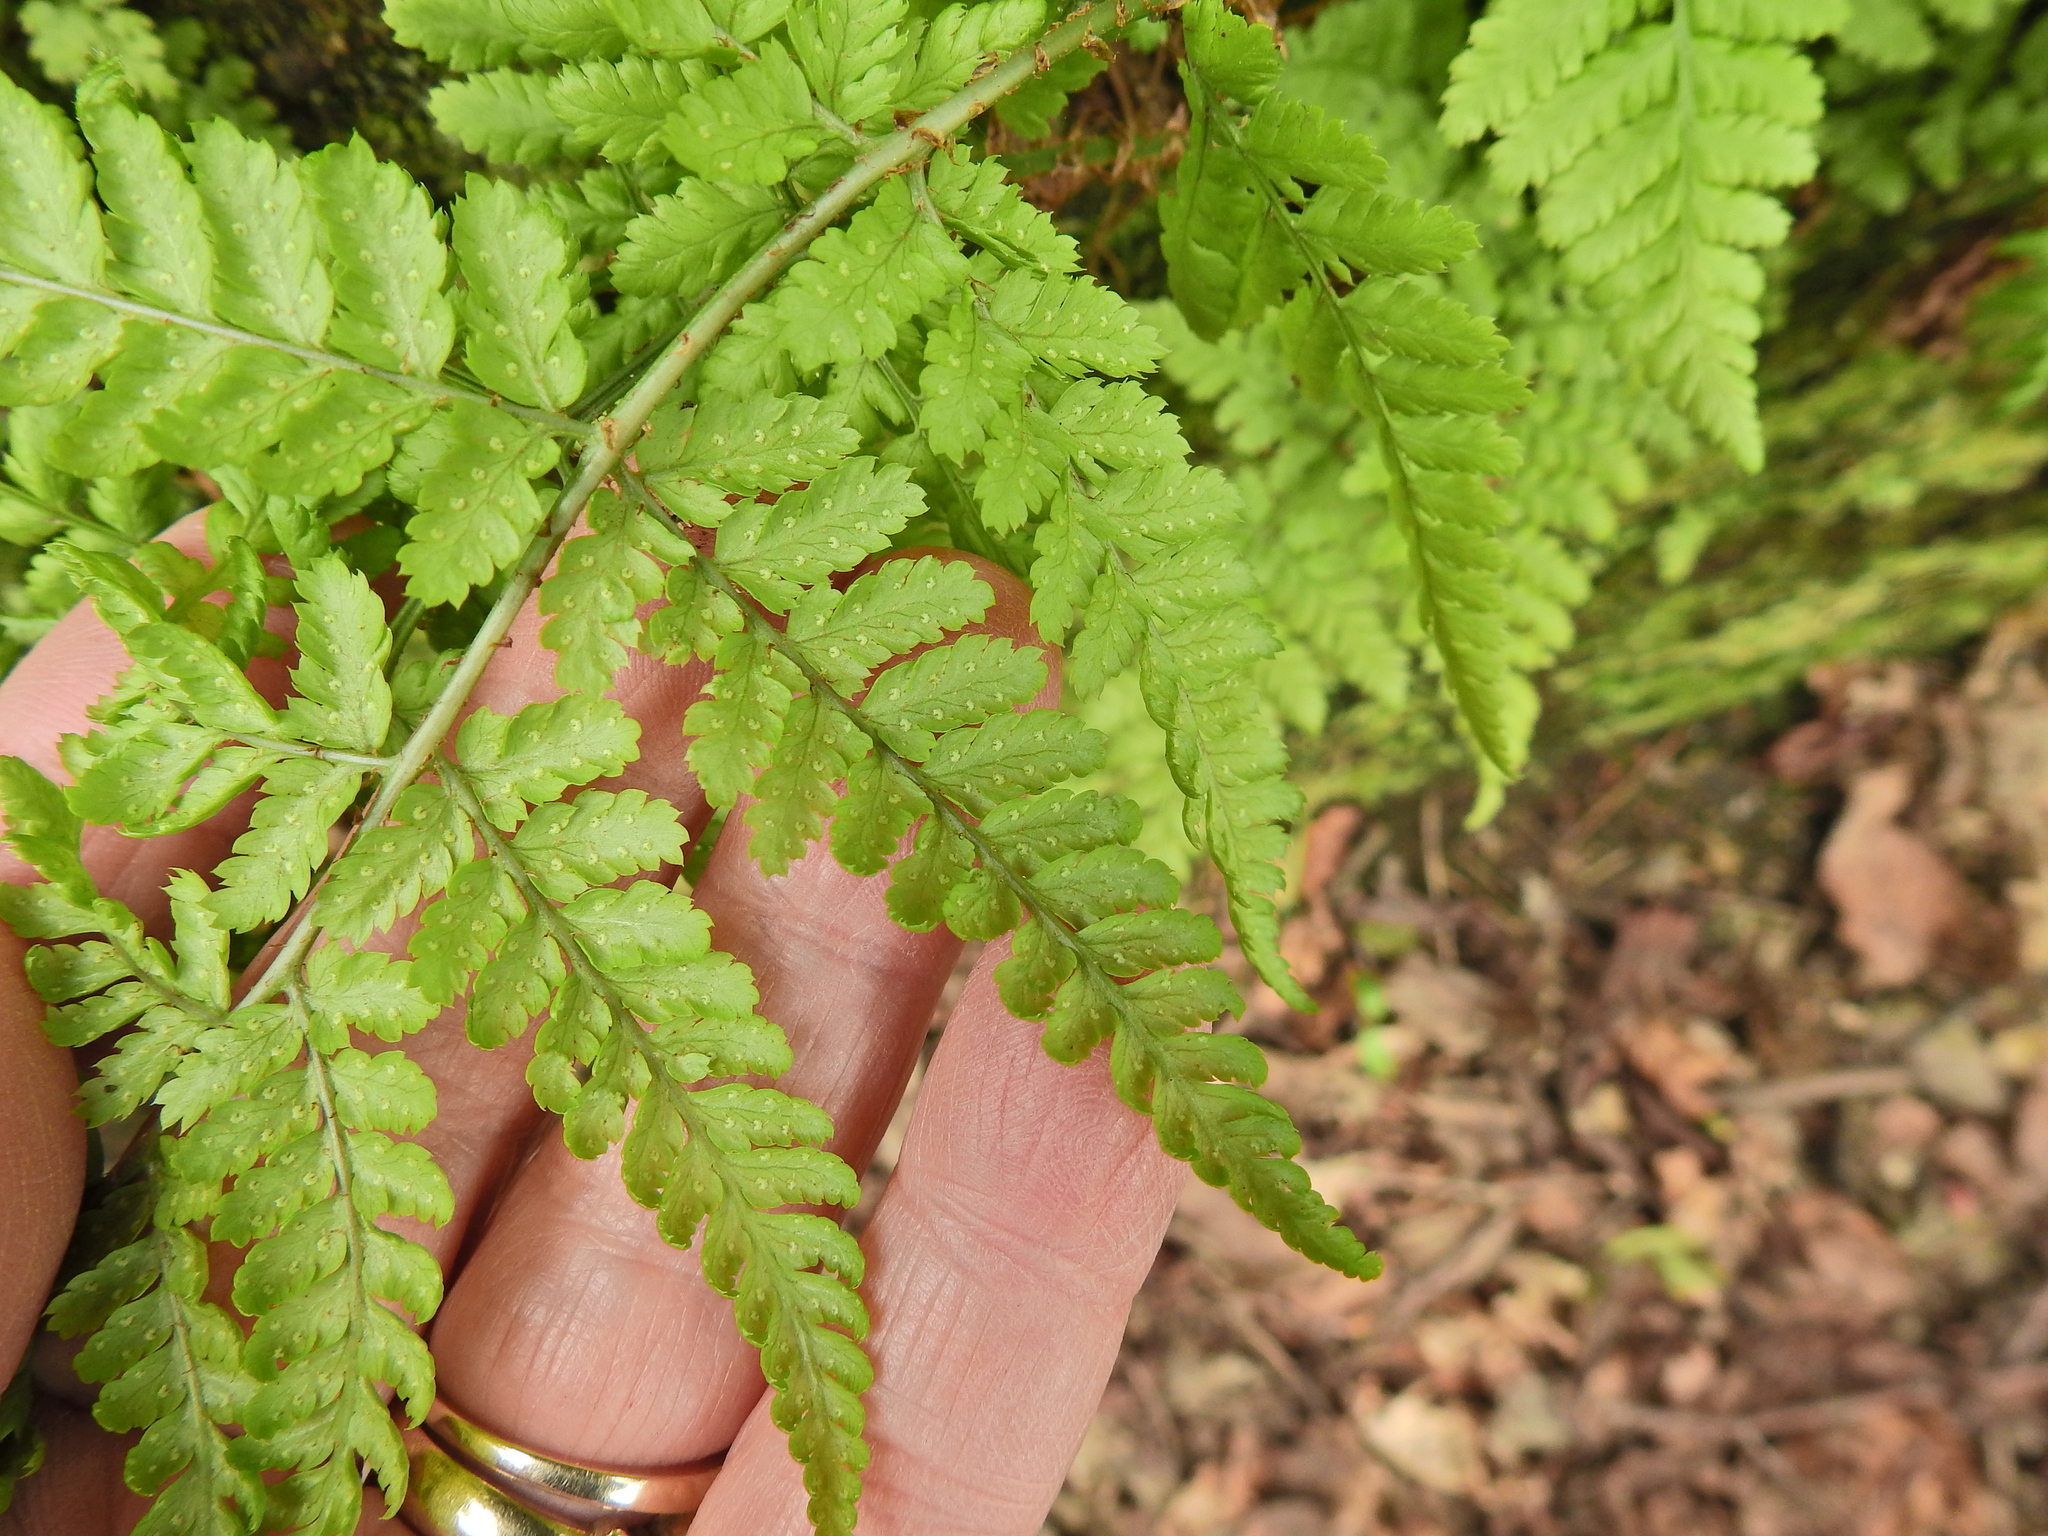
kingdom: Plantae
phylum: Tracheophyta
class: Polypodiopsida
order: Polypodiales
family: Dryopteridaceae
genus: Dryopteris
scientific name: Dryopteris dilatata
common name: Broad buckler-fern
